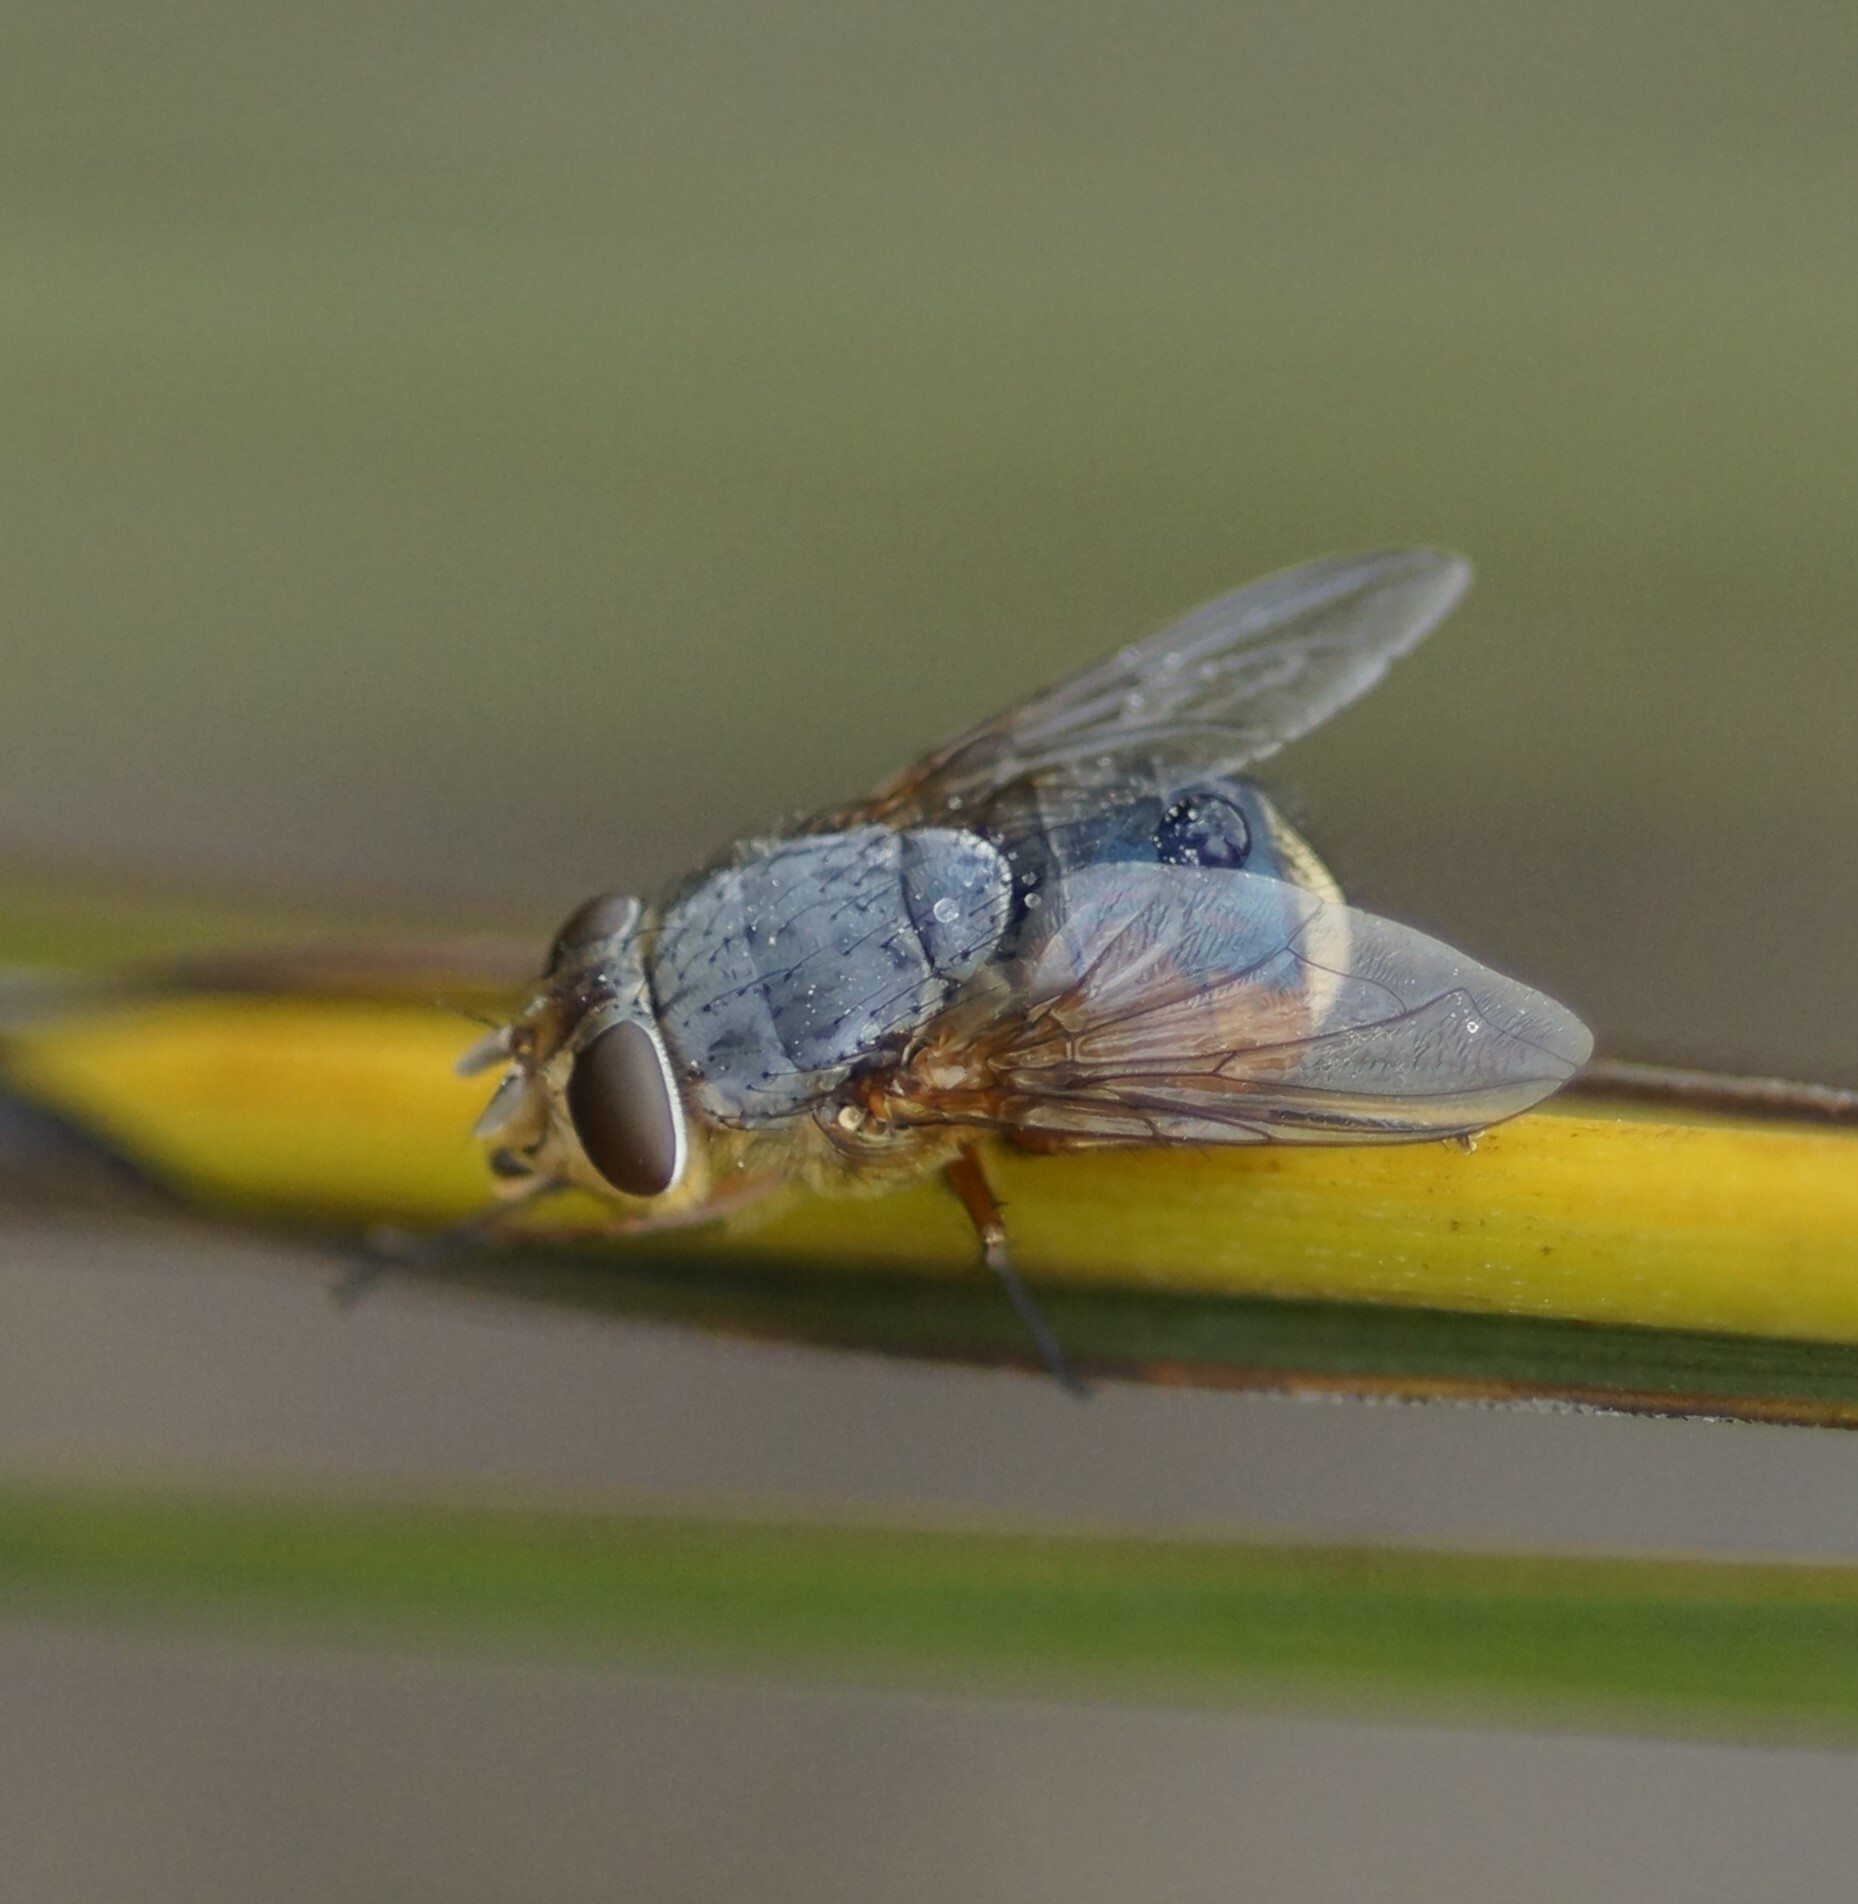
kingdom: Animalia
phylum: Arthropoda
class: Insecta
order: Diptera
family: Calliphoridae
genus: Calliphora
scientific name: Calliphora augur
